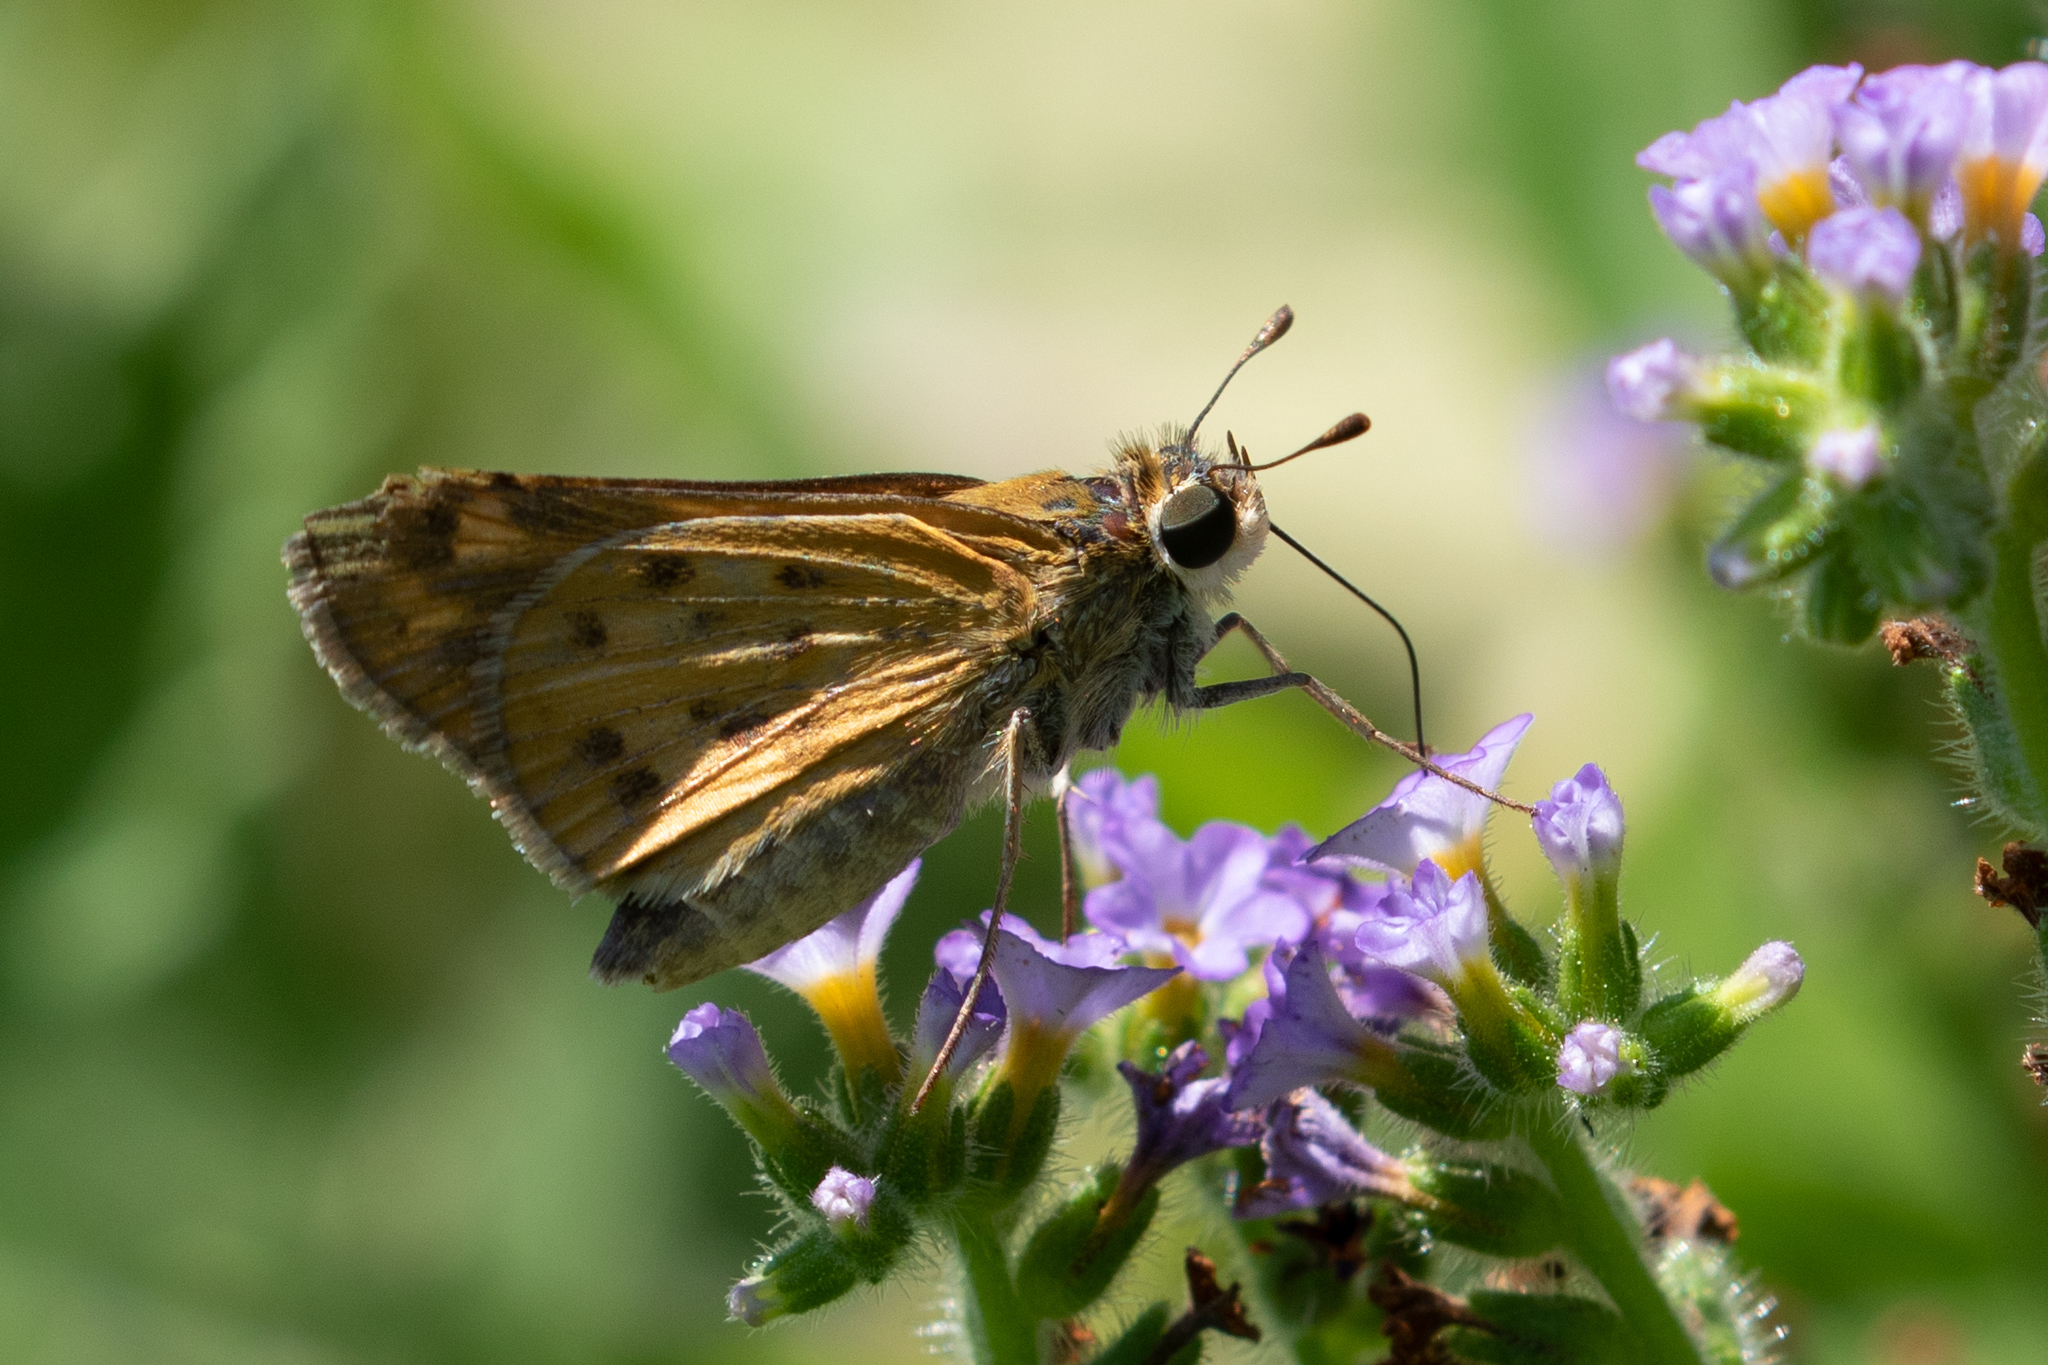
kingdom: Animalia
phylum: Arthropoda
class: Insecta
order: Lepidoptera
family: Hesperiidae
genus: Hylephila
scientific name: Hylephila phyleus
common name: Fiery skipper
